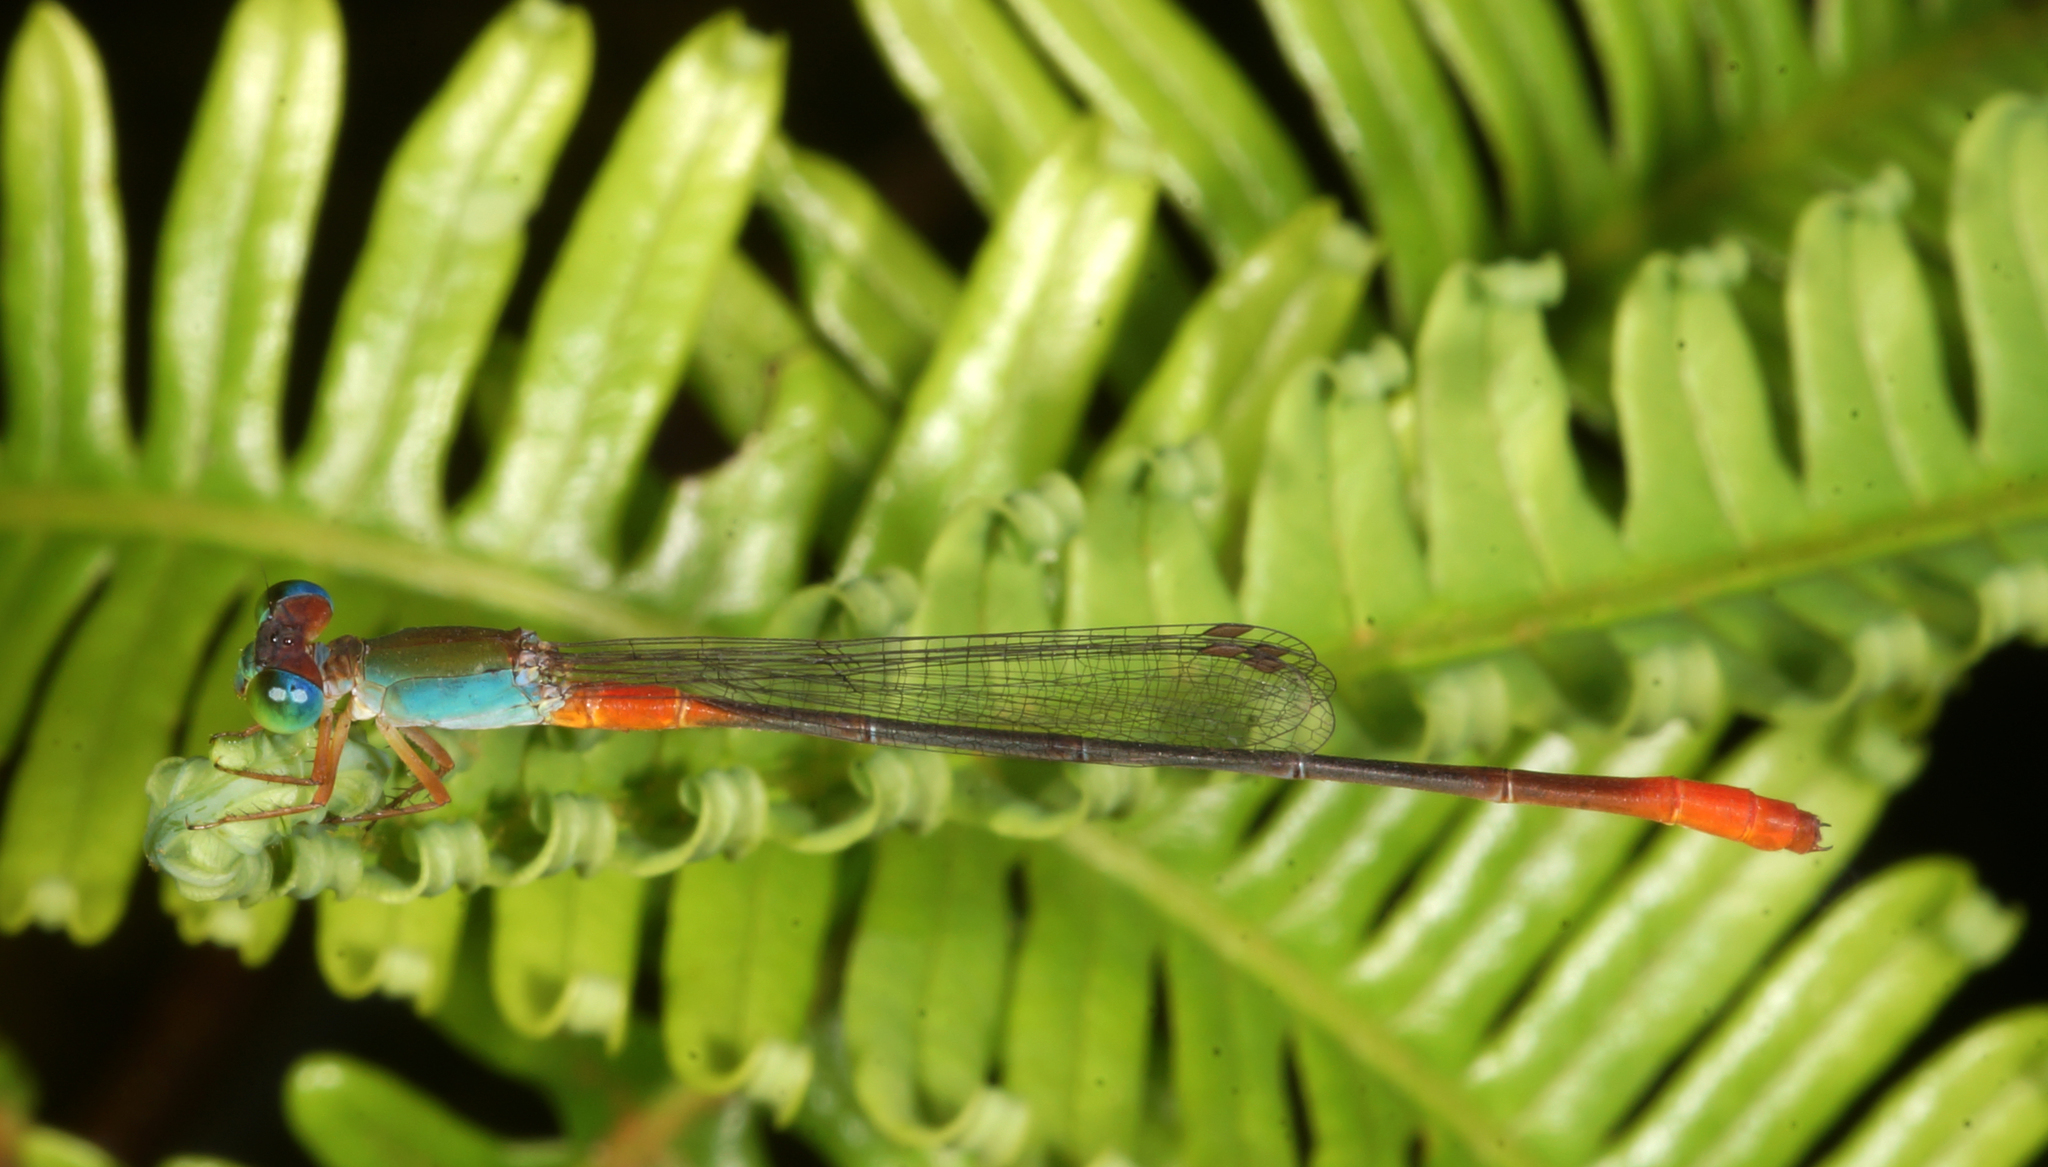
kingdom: Animalia
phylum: Arthropoda
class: Insecta
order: Odonata
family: Coenagrionidae
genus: Ceriagrion
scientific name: Ceriagrion cerinorubellum
